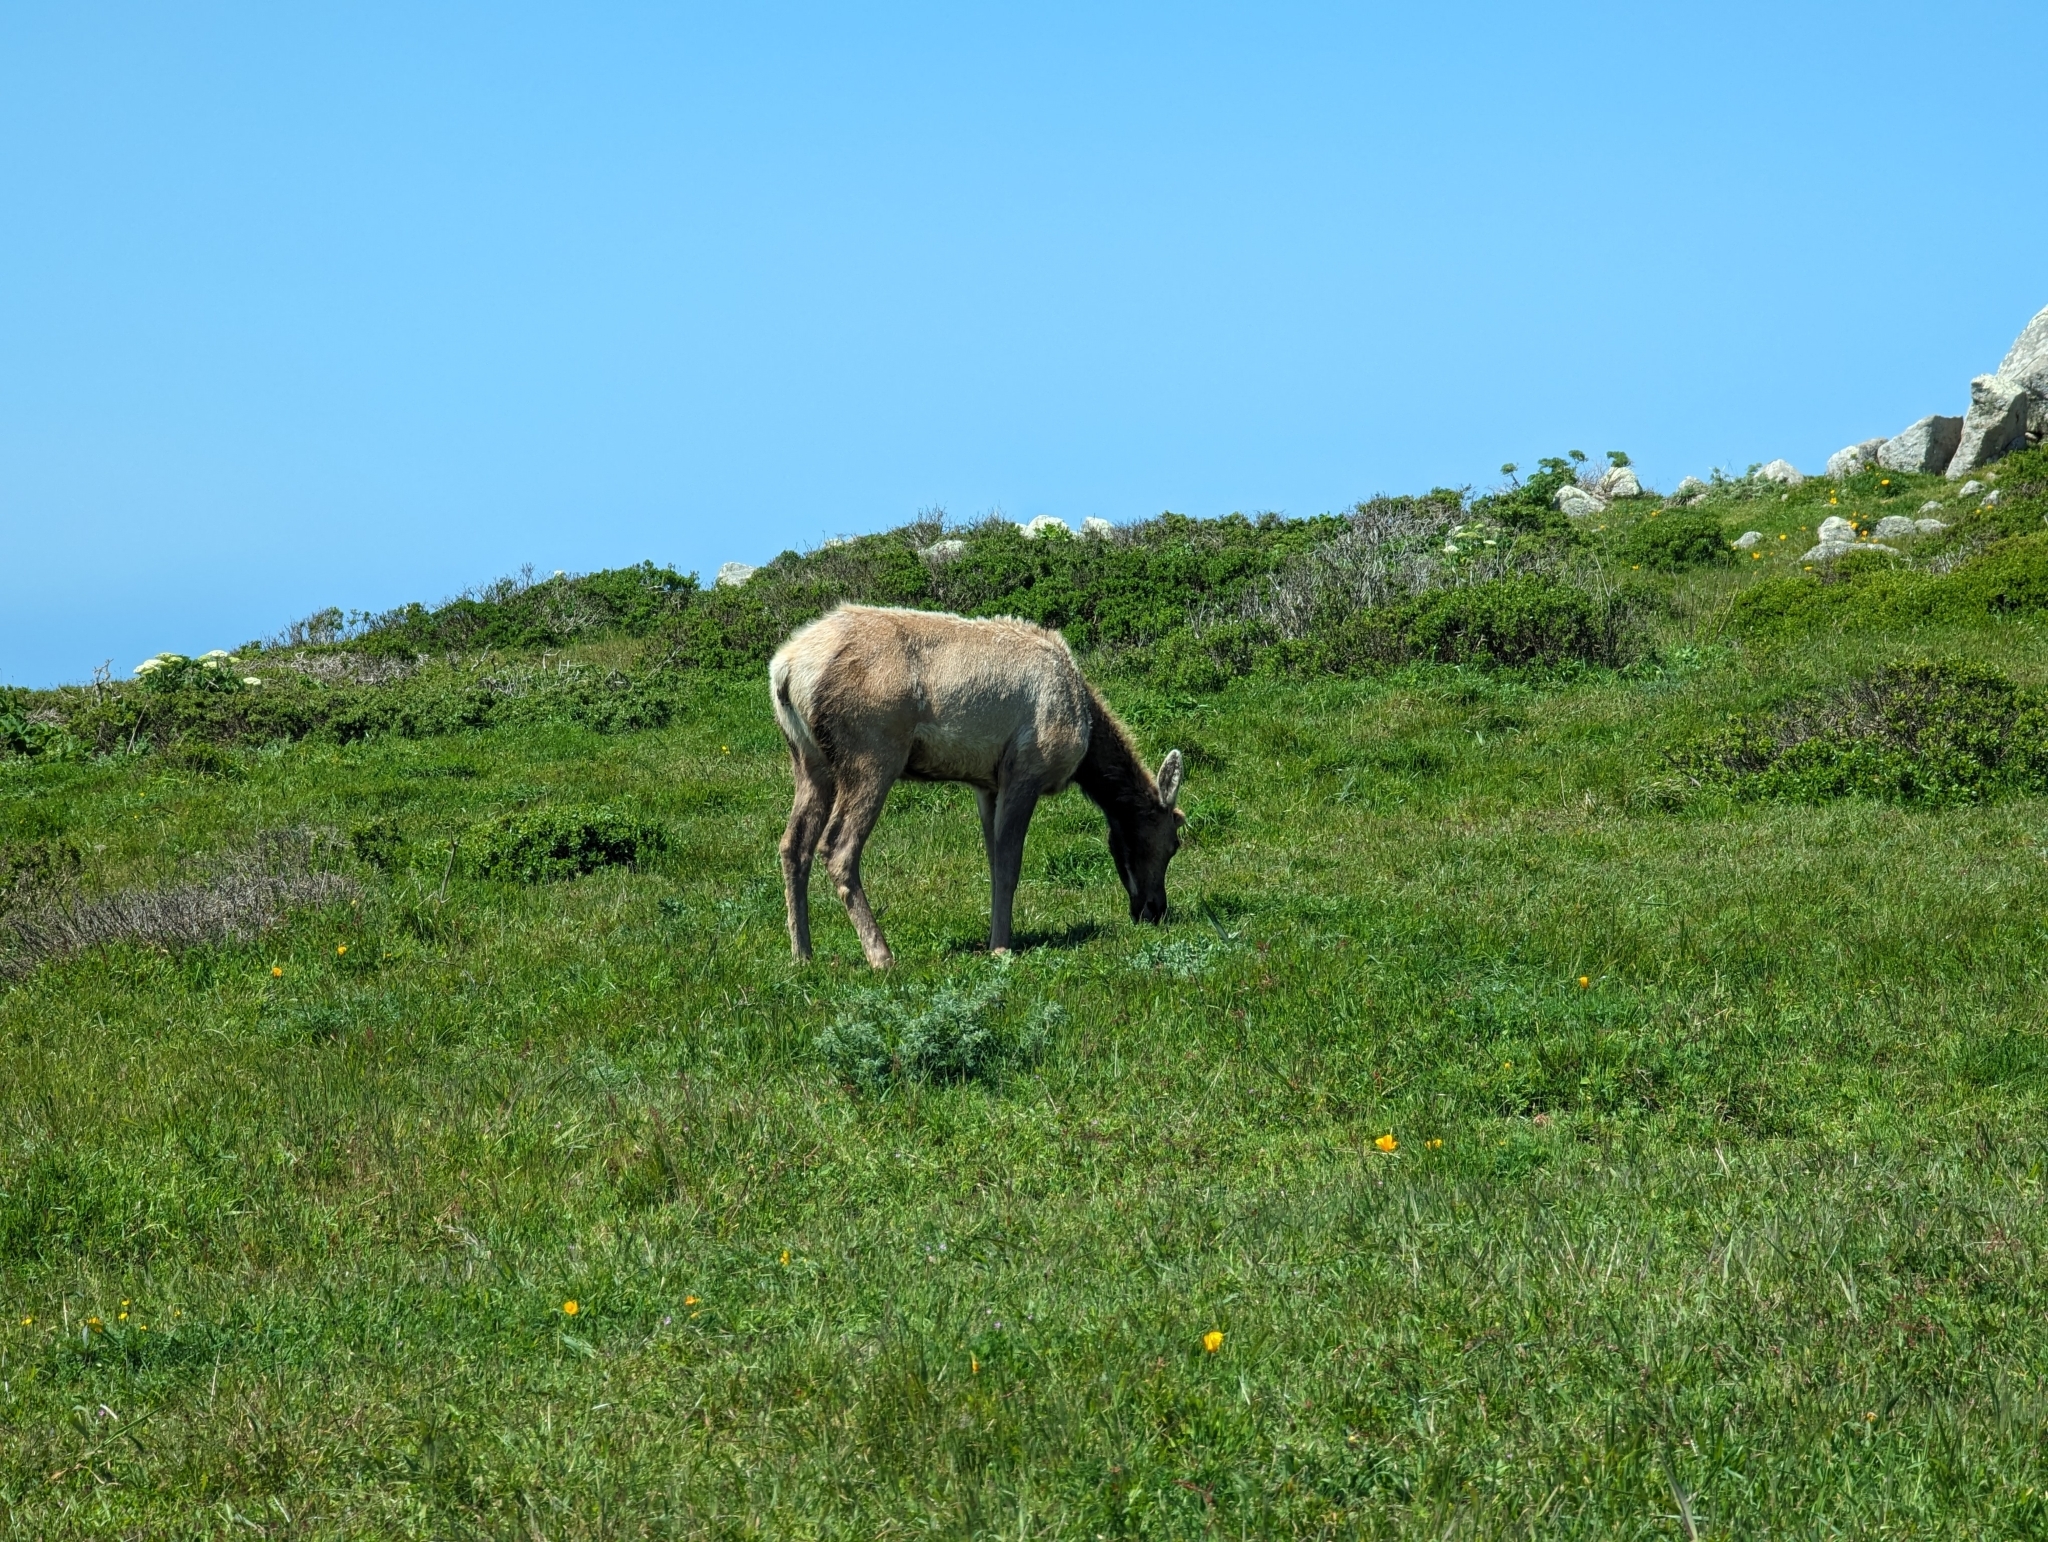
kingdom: Animalia
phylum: Chordata
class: Mammalia
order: Artiodactyla
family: Cervidae
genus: Cervus
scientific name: Cervus elaphus
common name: Red deer
